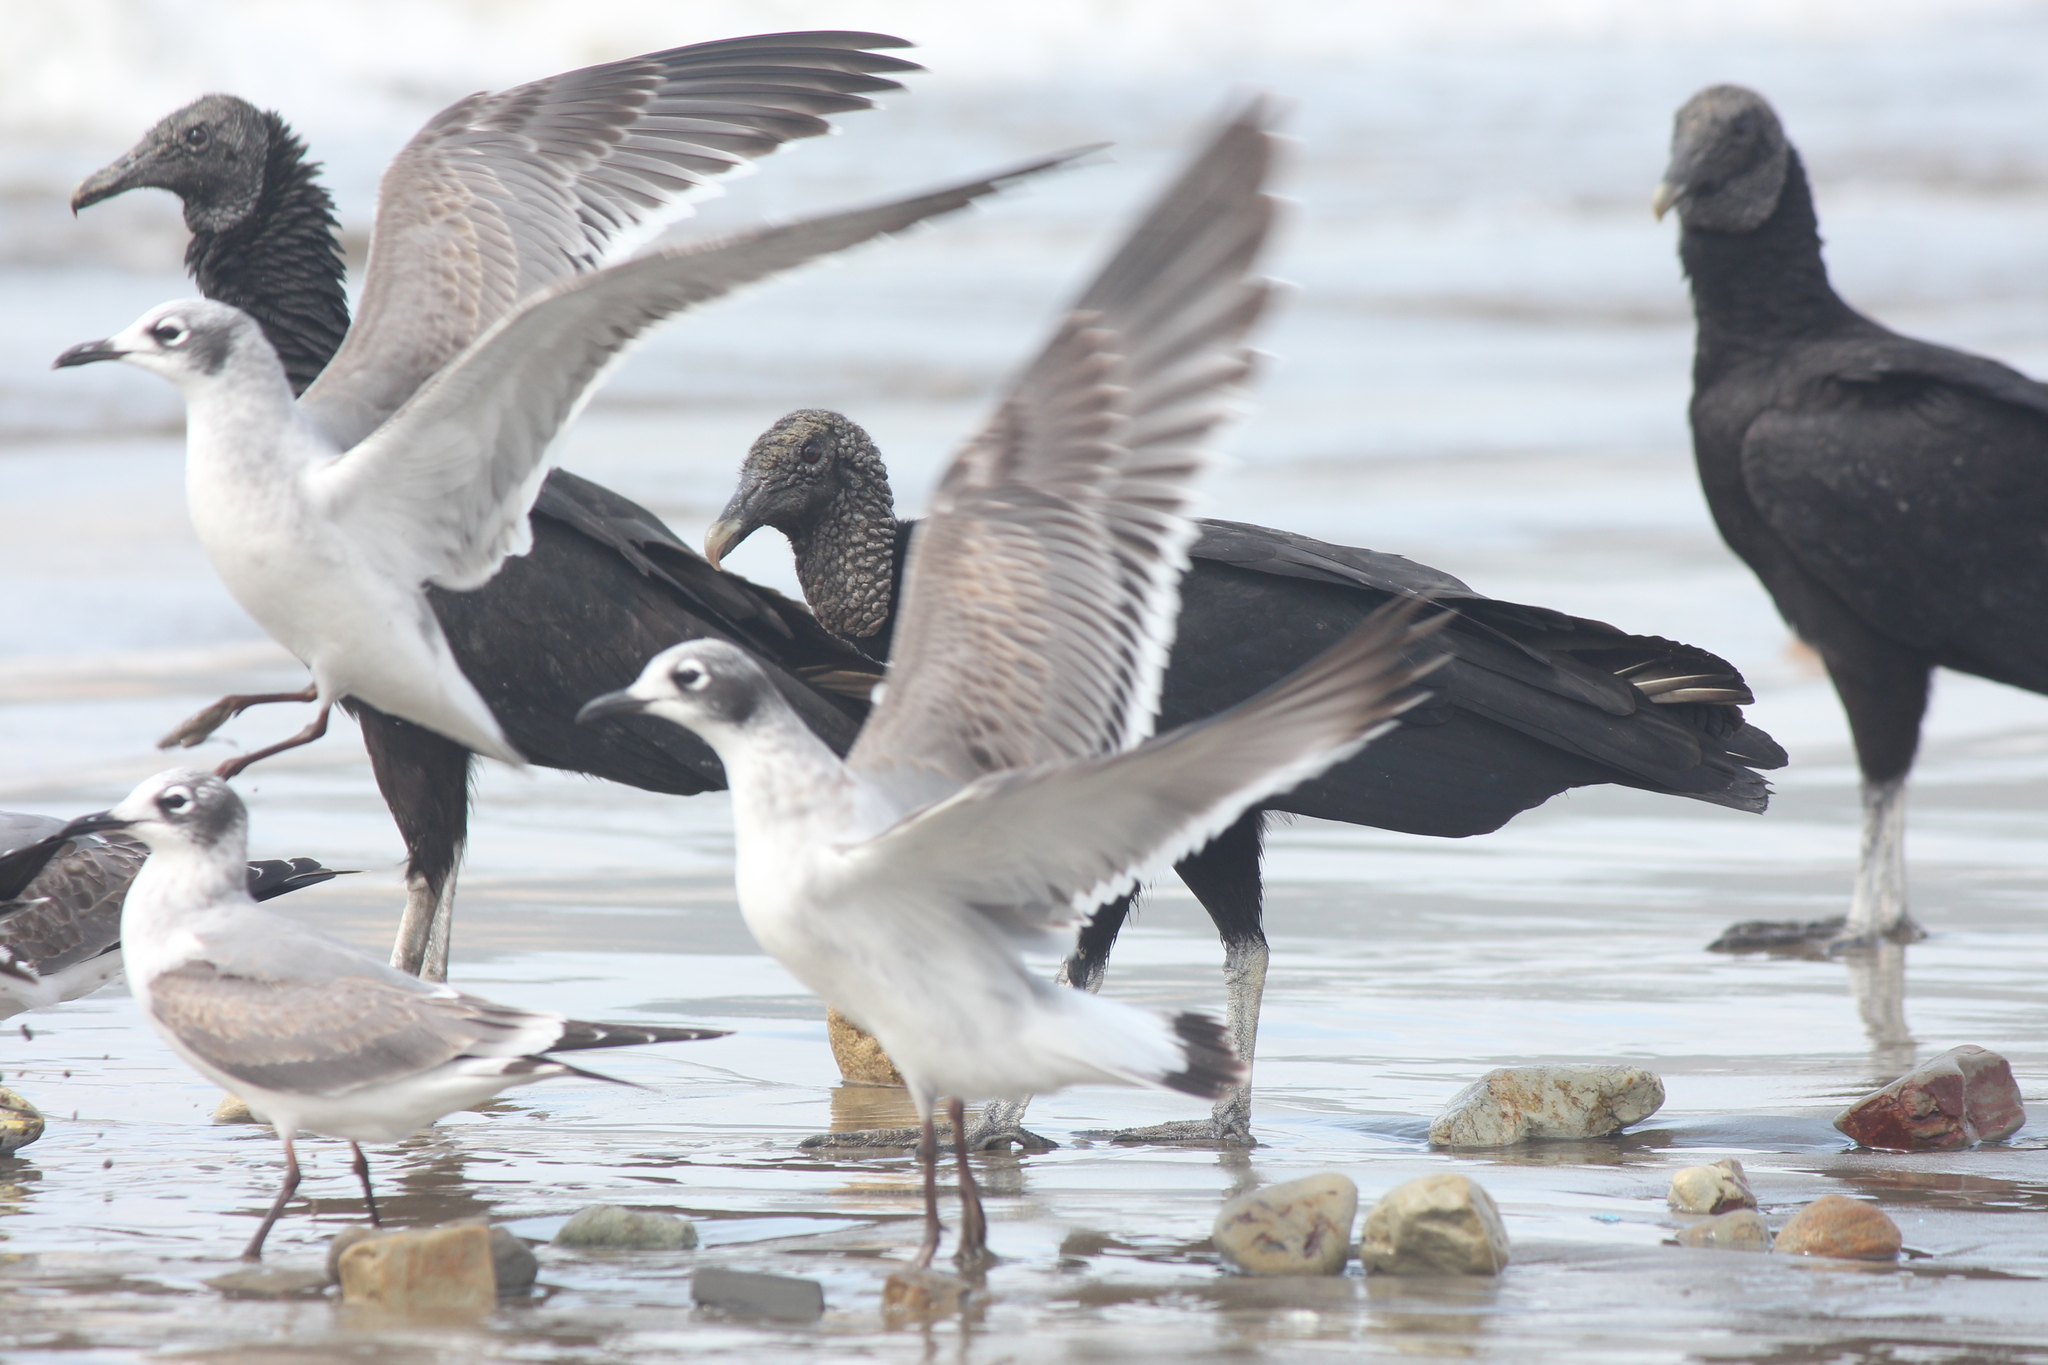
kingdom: Animalia
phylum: Chordata
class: Aves
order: Accipitriformes
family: Cathartidae
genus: Coragyps
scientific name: Coragyps atratus
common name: Black vulture
